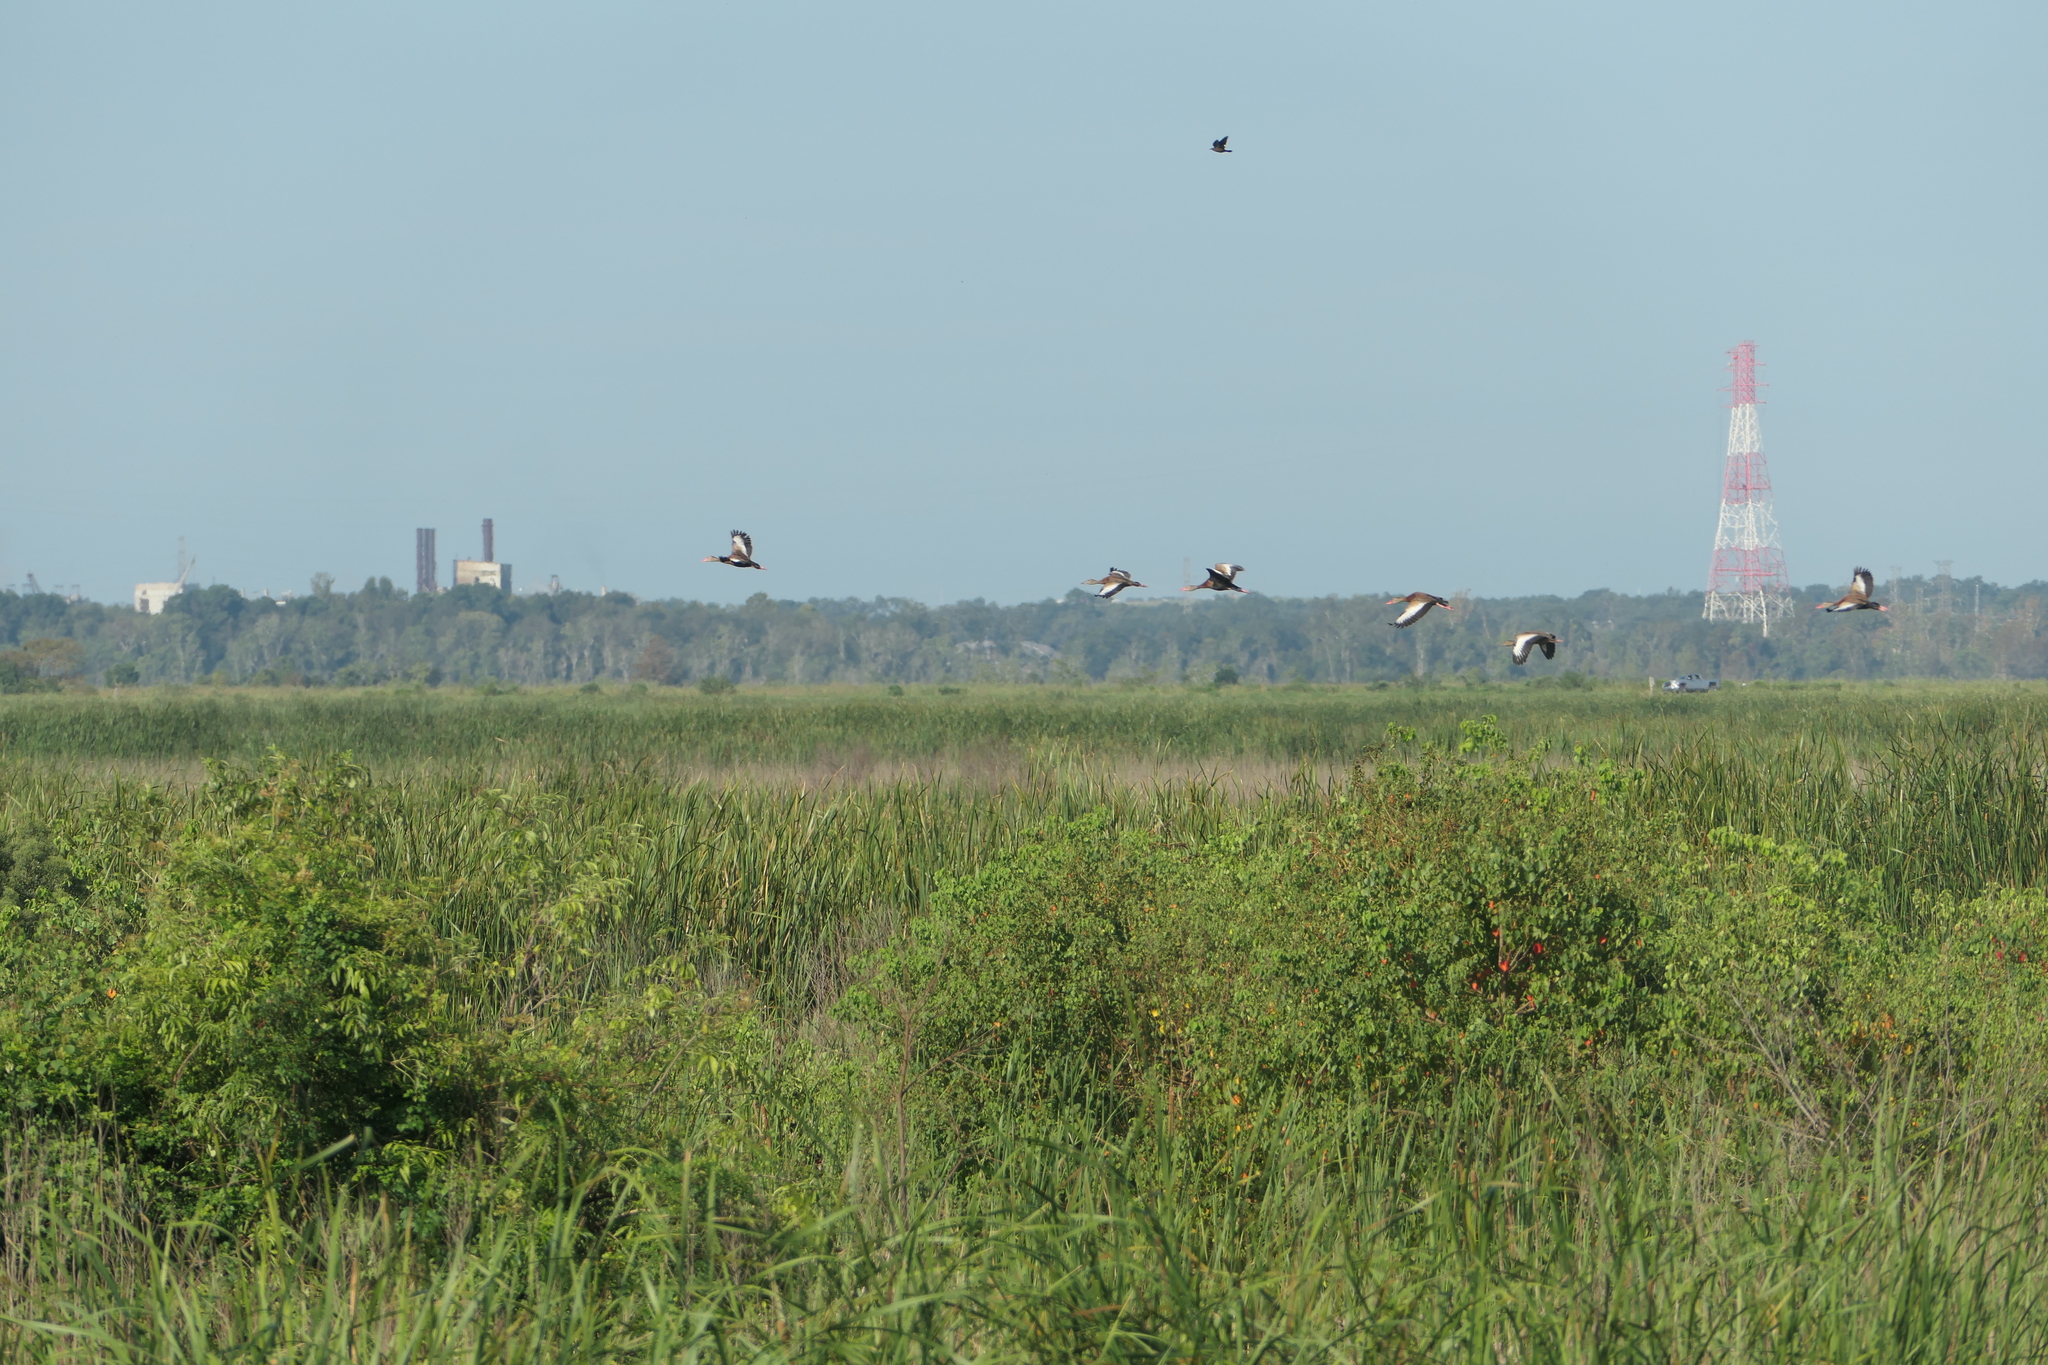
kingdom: Animalia
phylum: Chordata
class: Aves
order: Anseriformes
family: Anatidae
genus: Dendrocygna
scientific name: Dendrocygna autumnalis
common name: Black-bellied whistling duck
